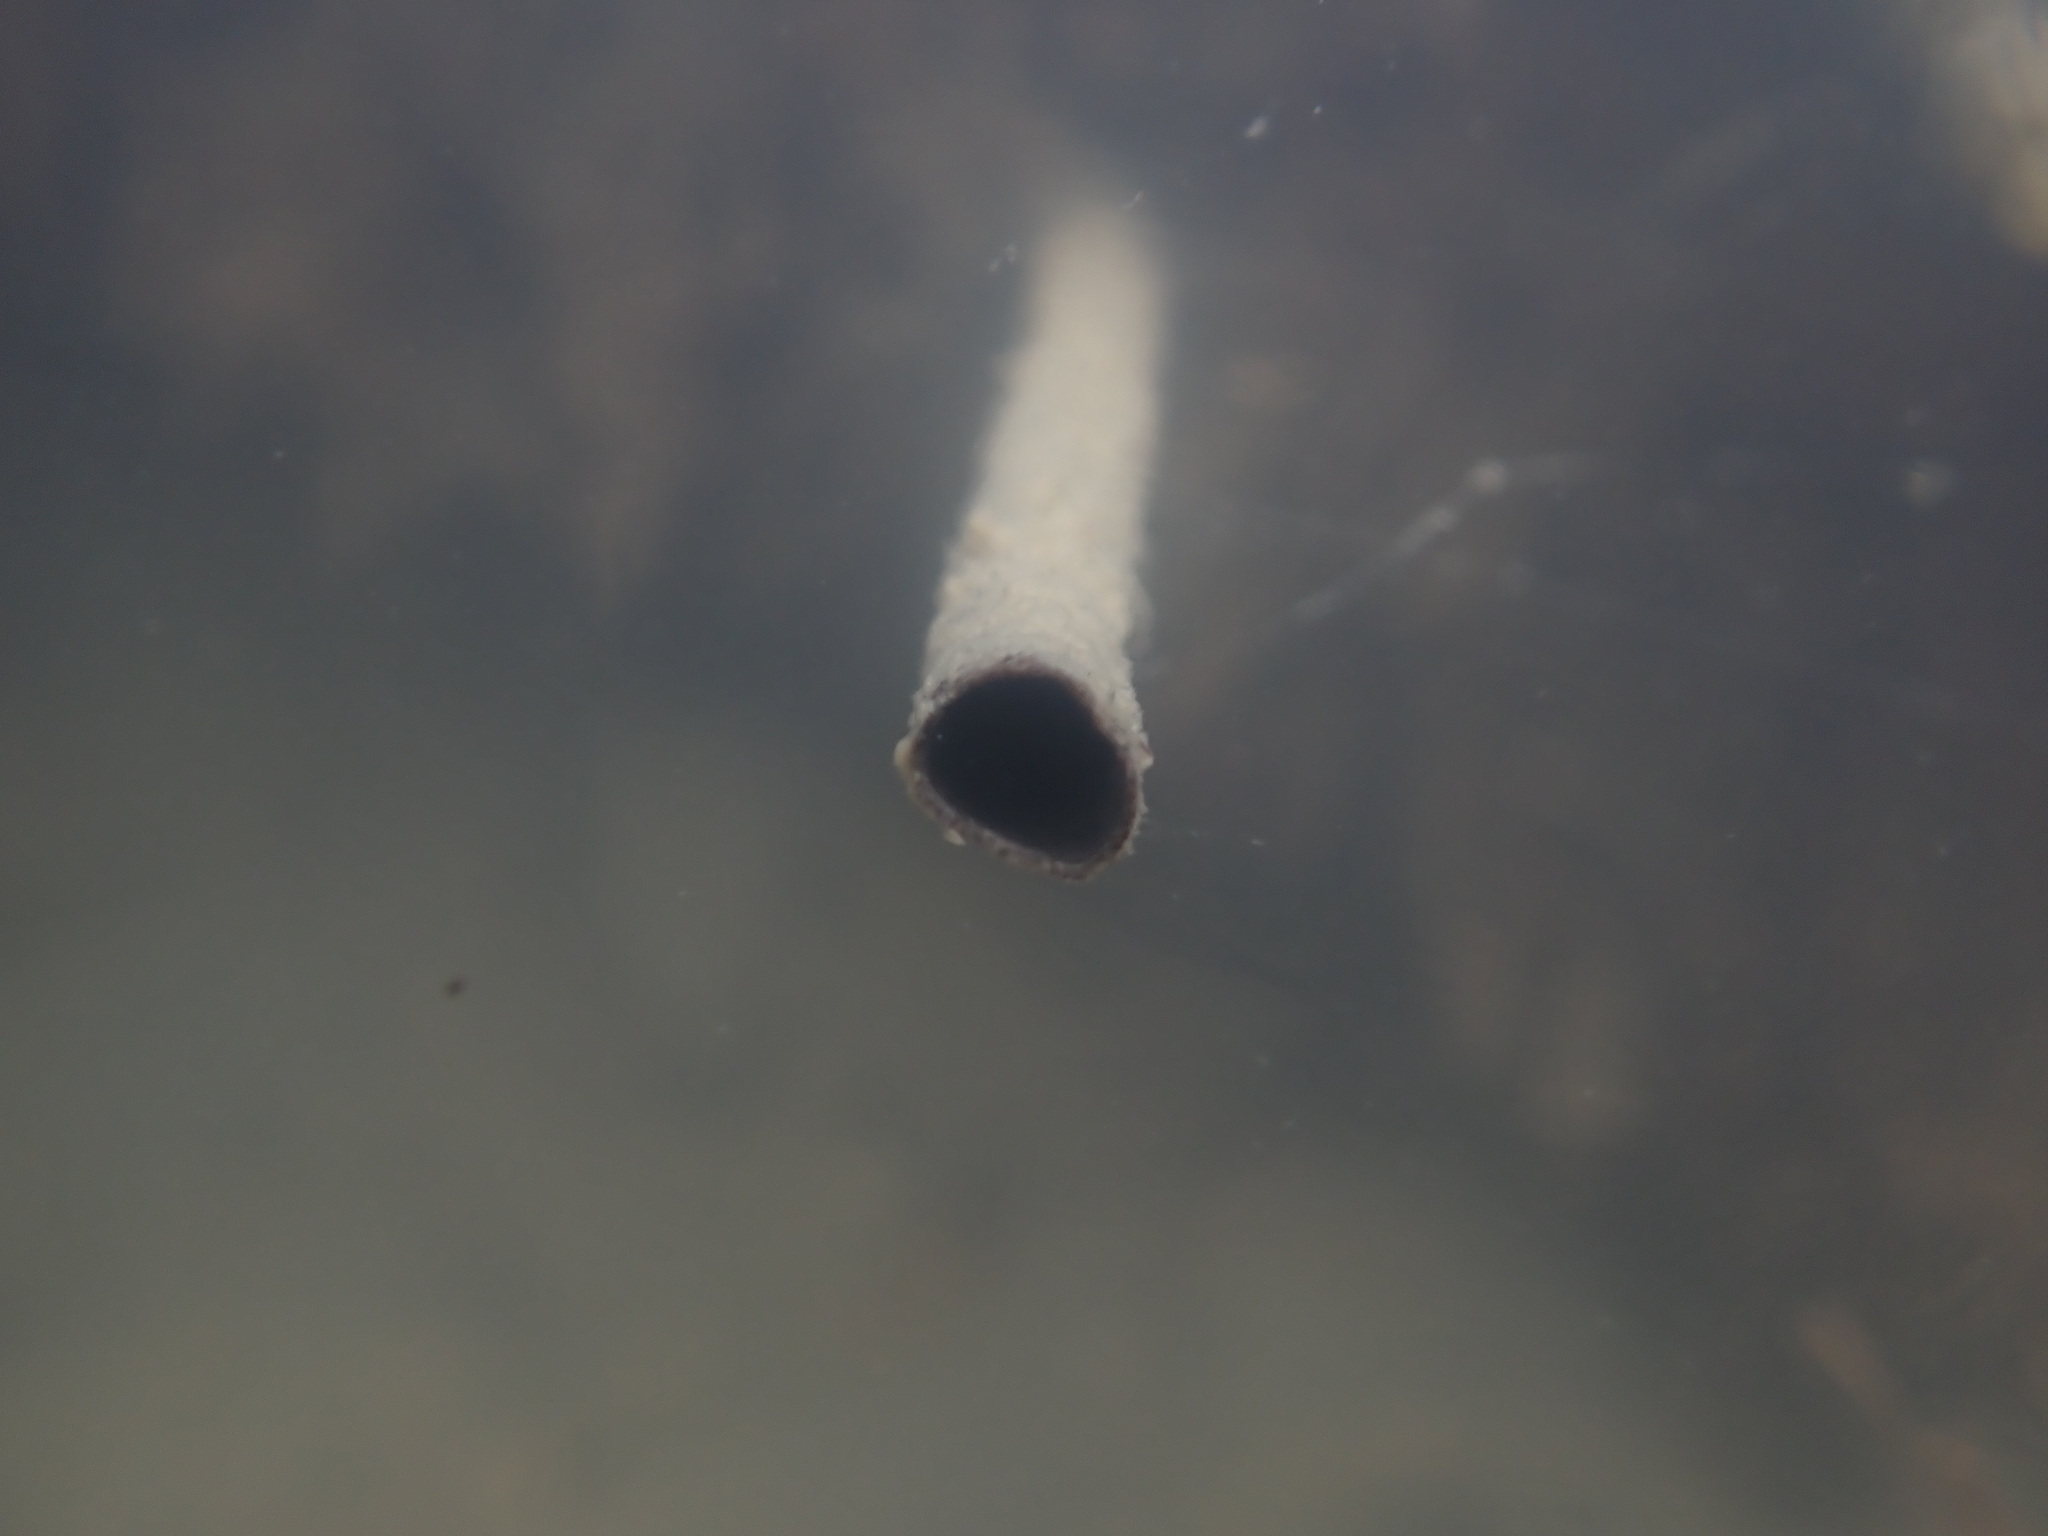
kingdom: Animalia
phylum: Annelida
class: Polychaeta
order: Sabellida
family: Sabellidae
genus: Sabella
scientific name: Sabella spallanzanii
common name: Feather duster worm
